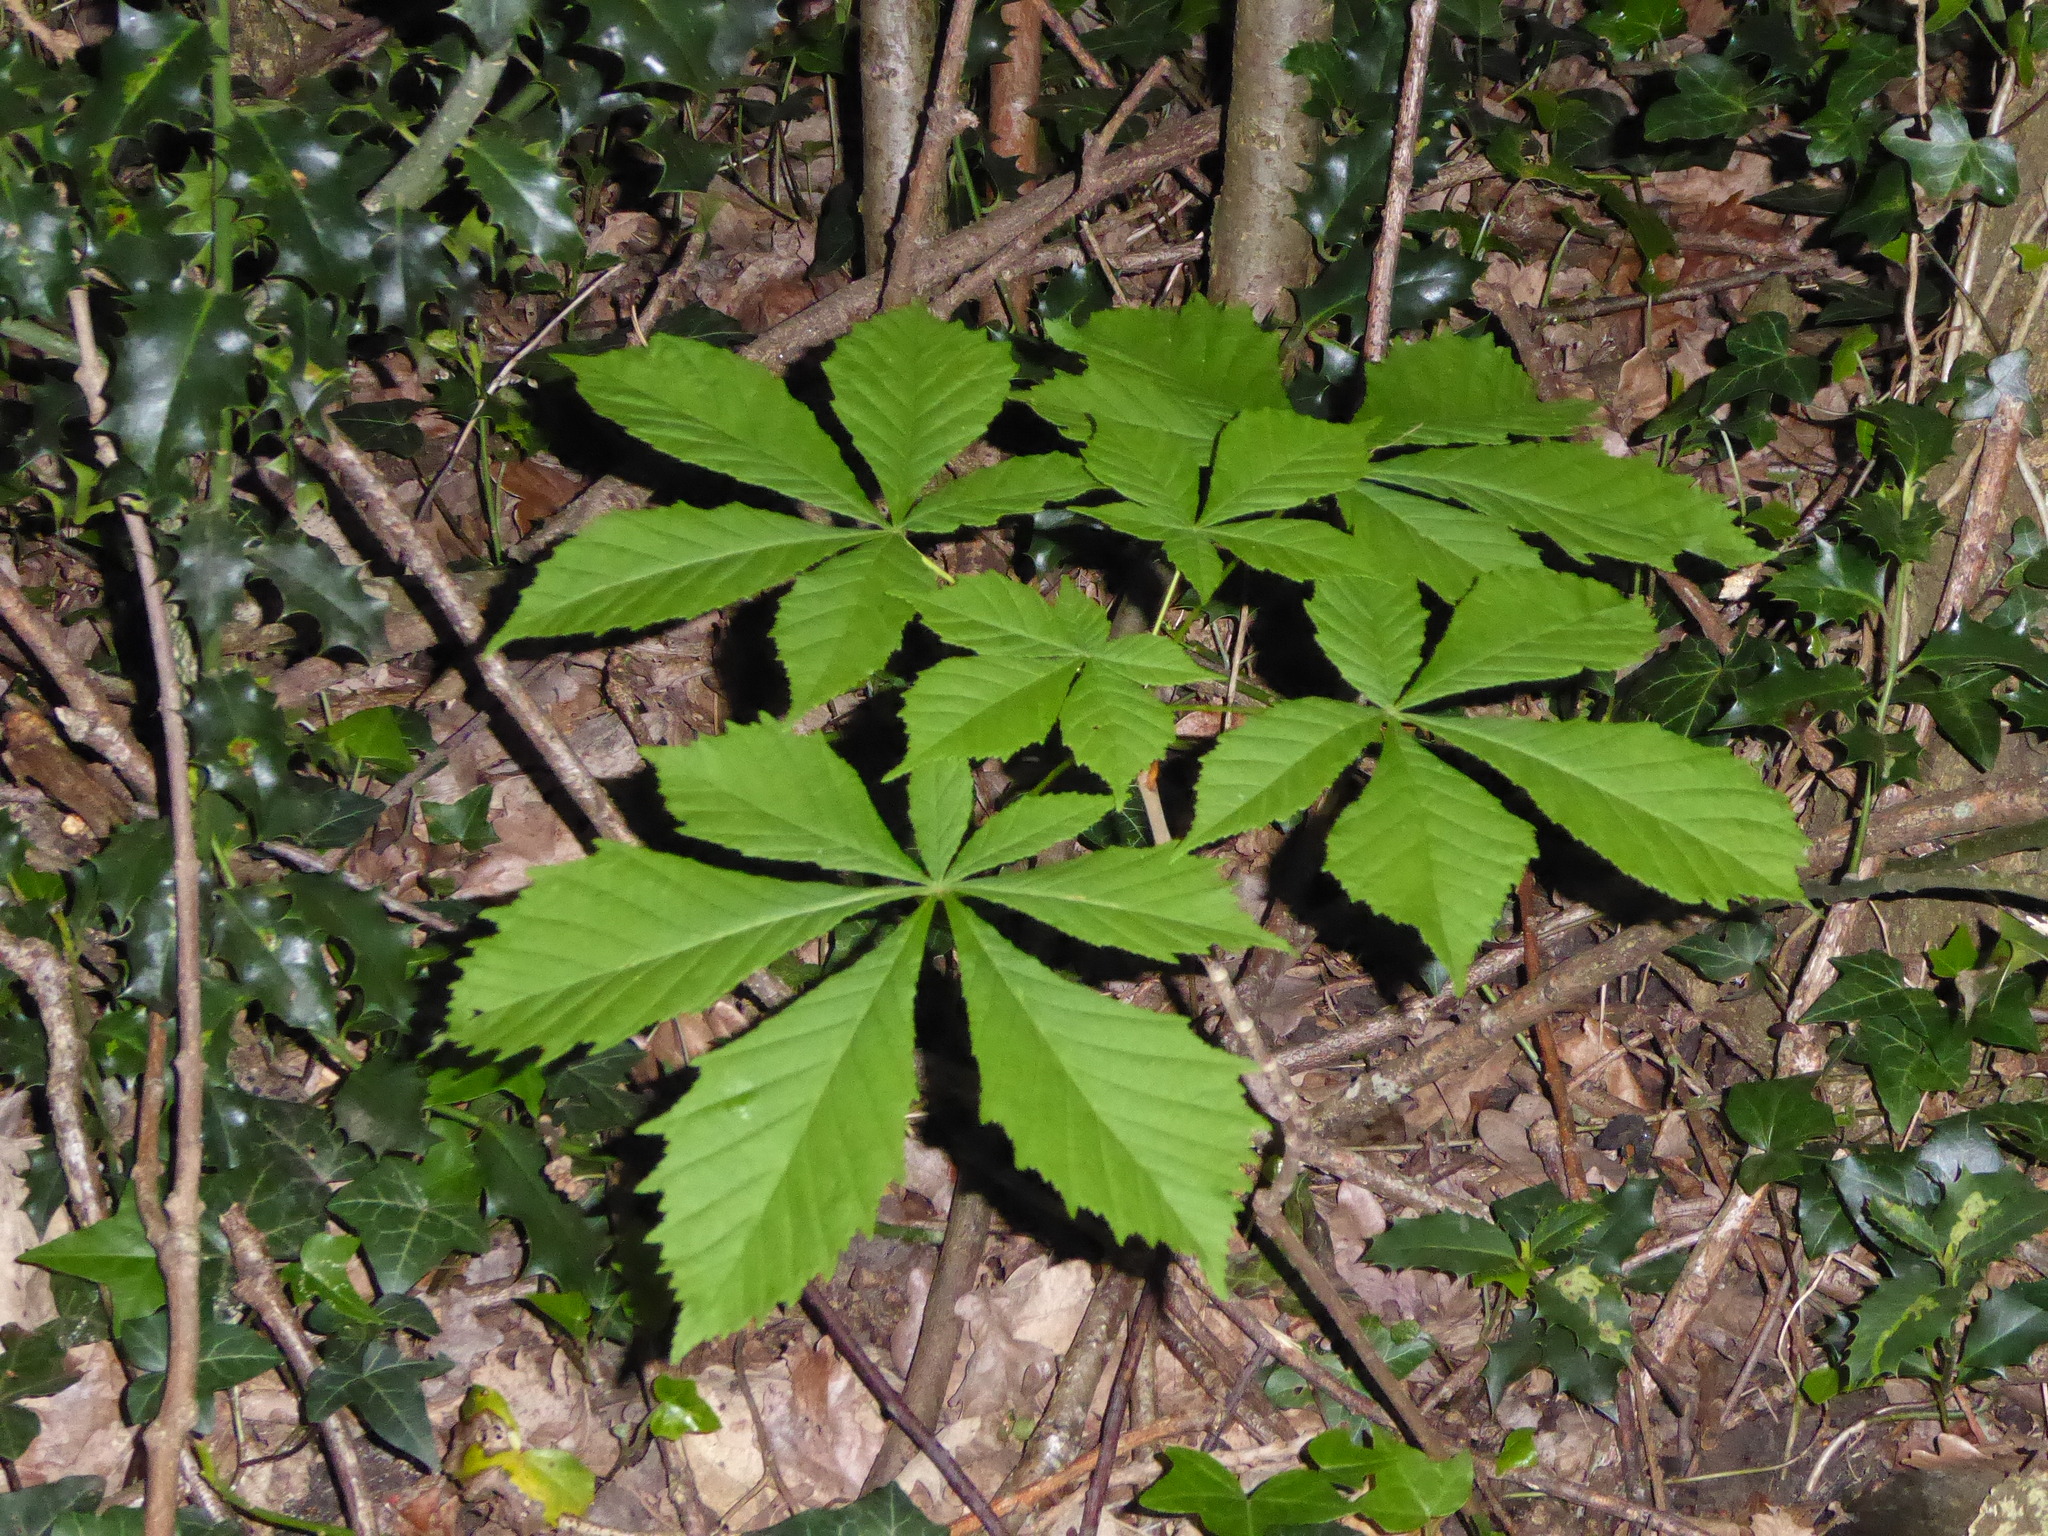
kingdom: Plantae
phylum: Tracheophyta
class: Magnoliopsida
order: Sapindales
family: Sapindaceae
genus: Aesculus
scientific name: Aesculus hippocastanum
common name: Horse-chestnut
